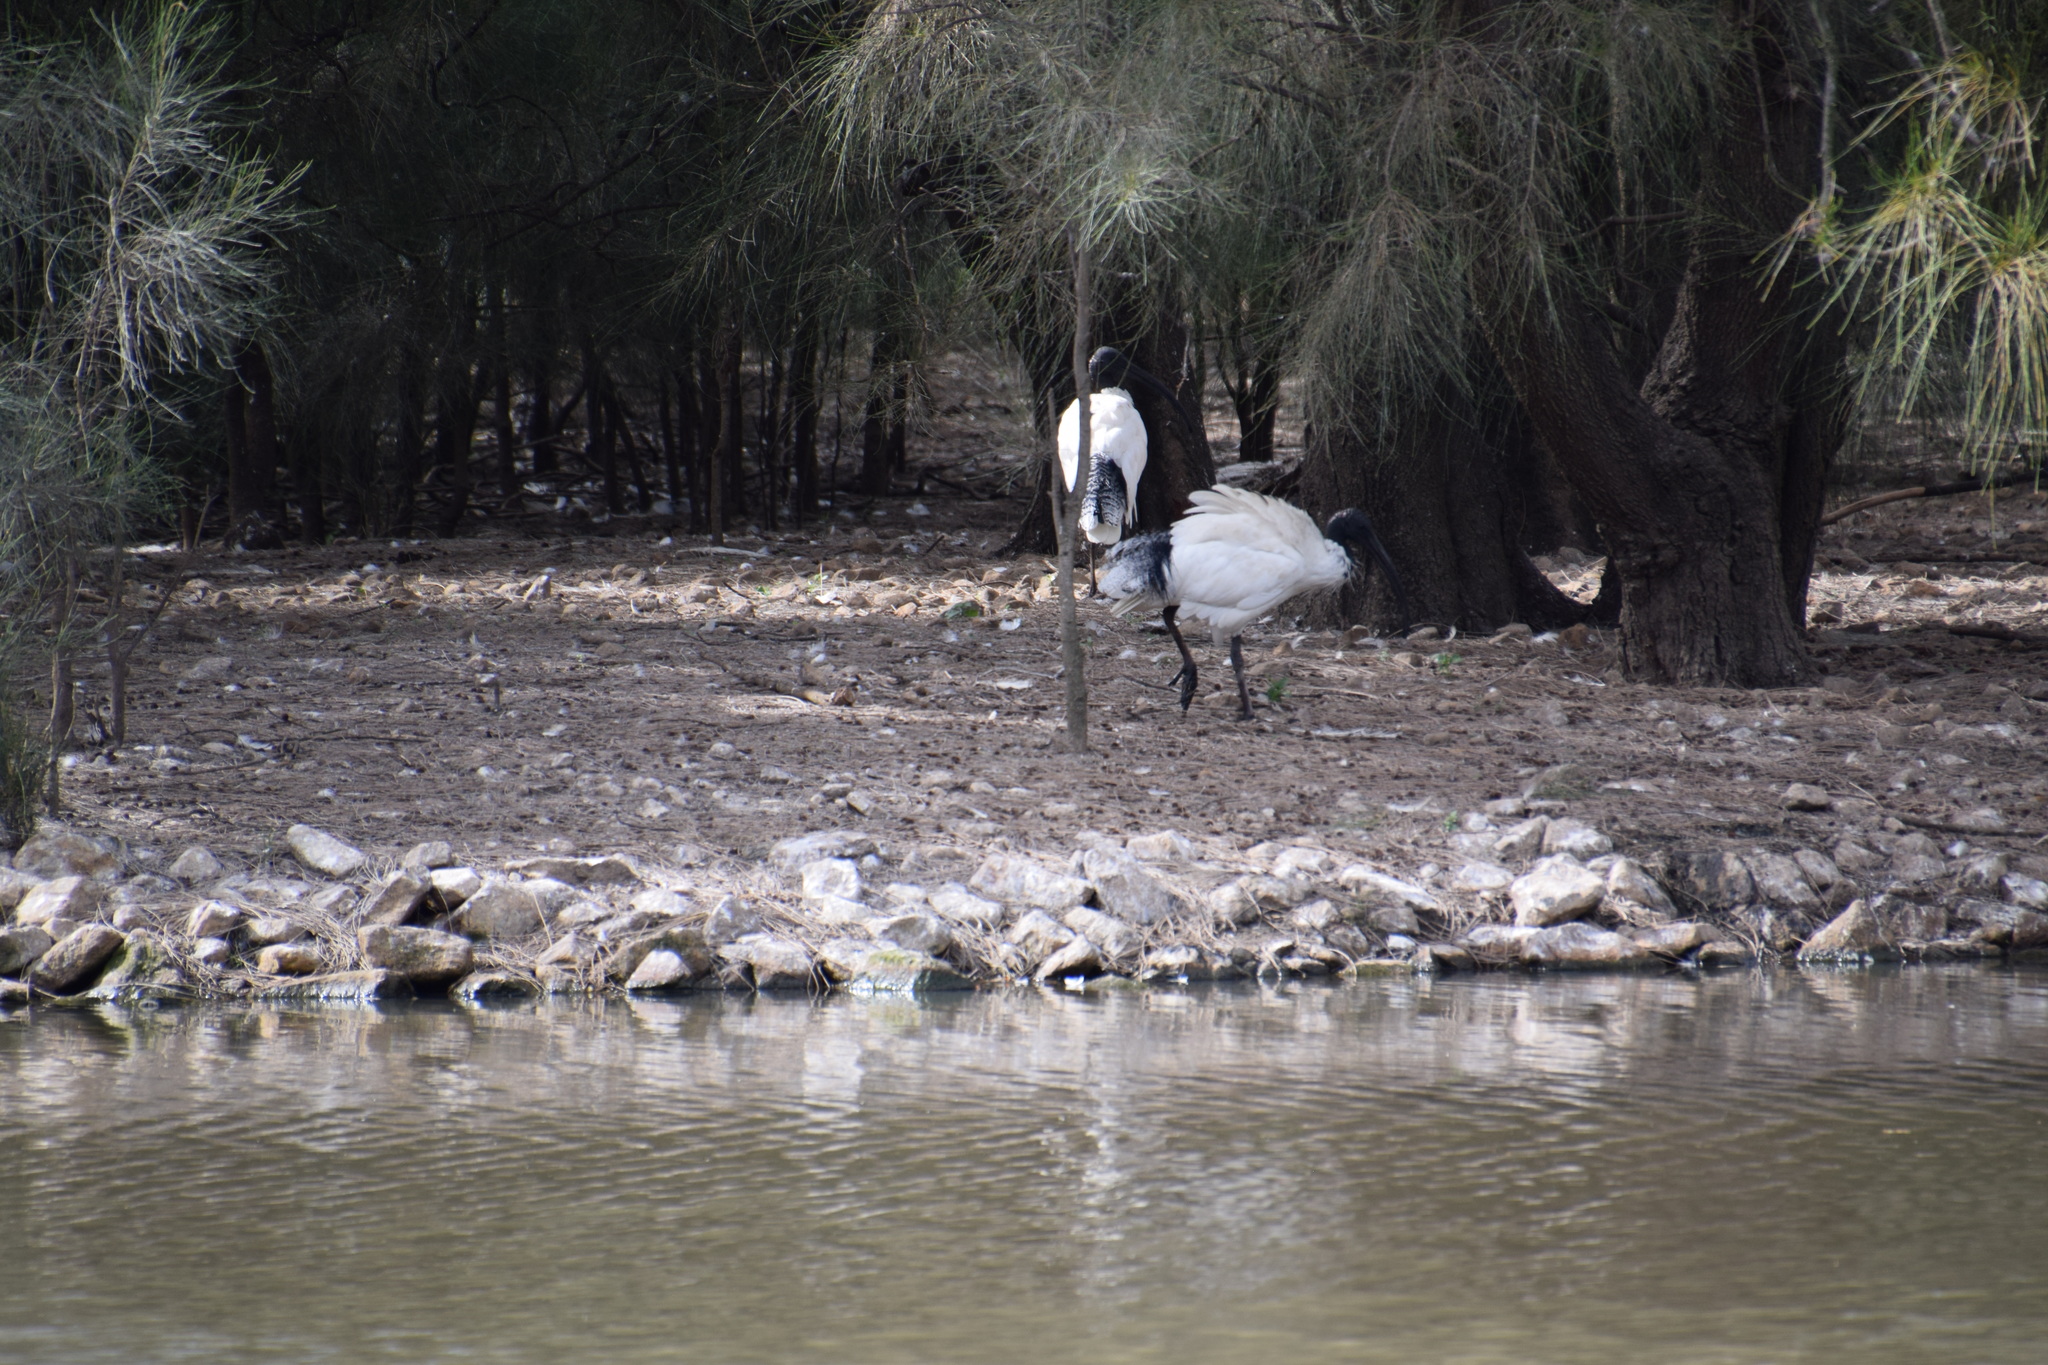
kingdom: Animalia
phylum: Chordata
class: Aves
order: Pelecaniformes
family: Threskiornithidae
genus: Threskiornis
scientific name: Threskiornis molucca
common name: Australian white ibis
